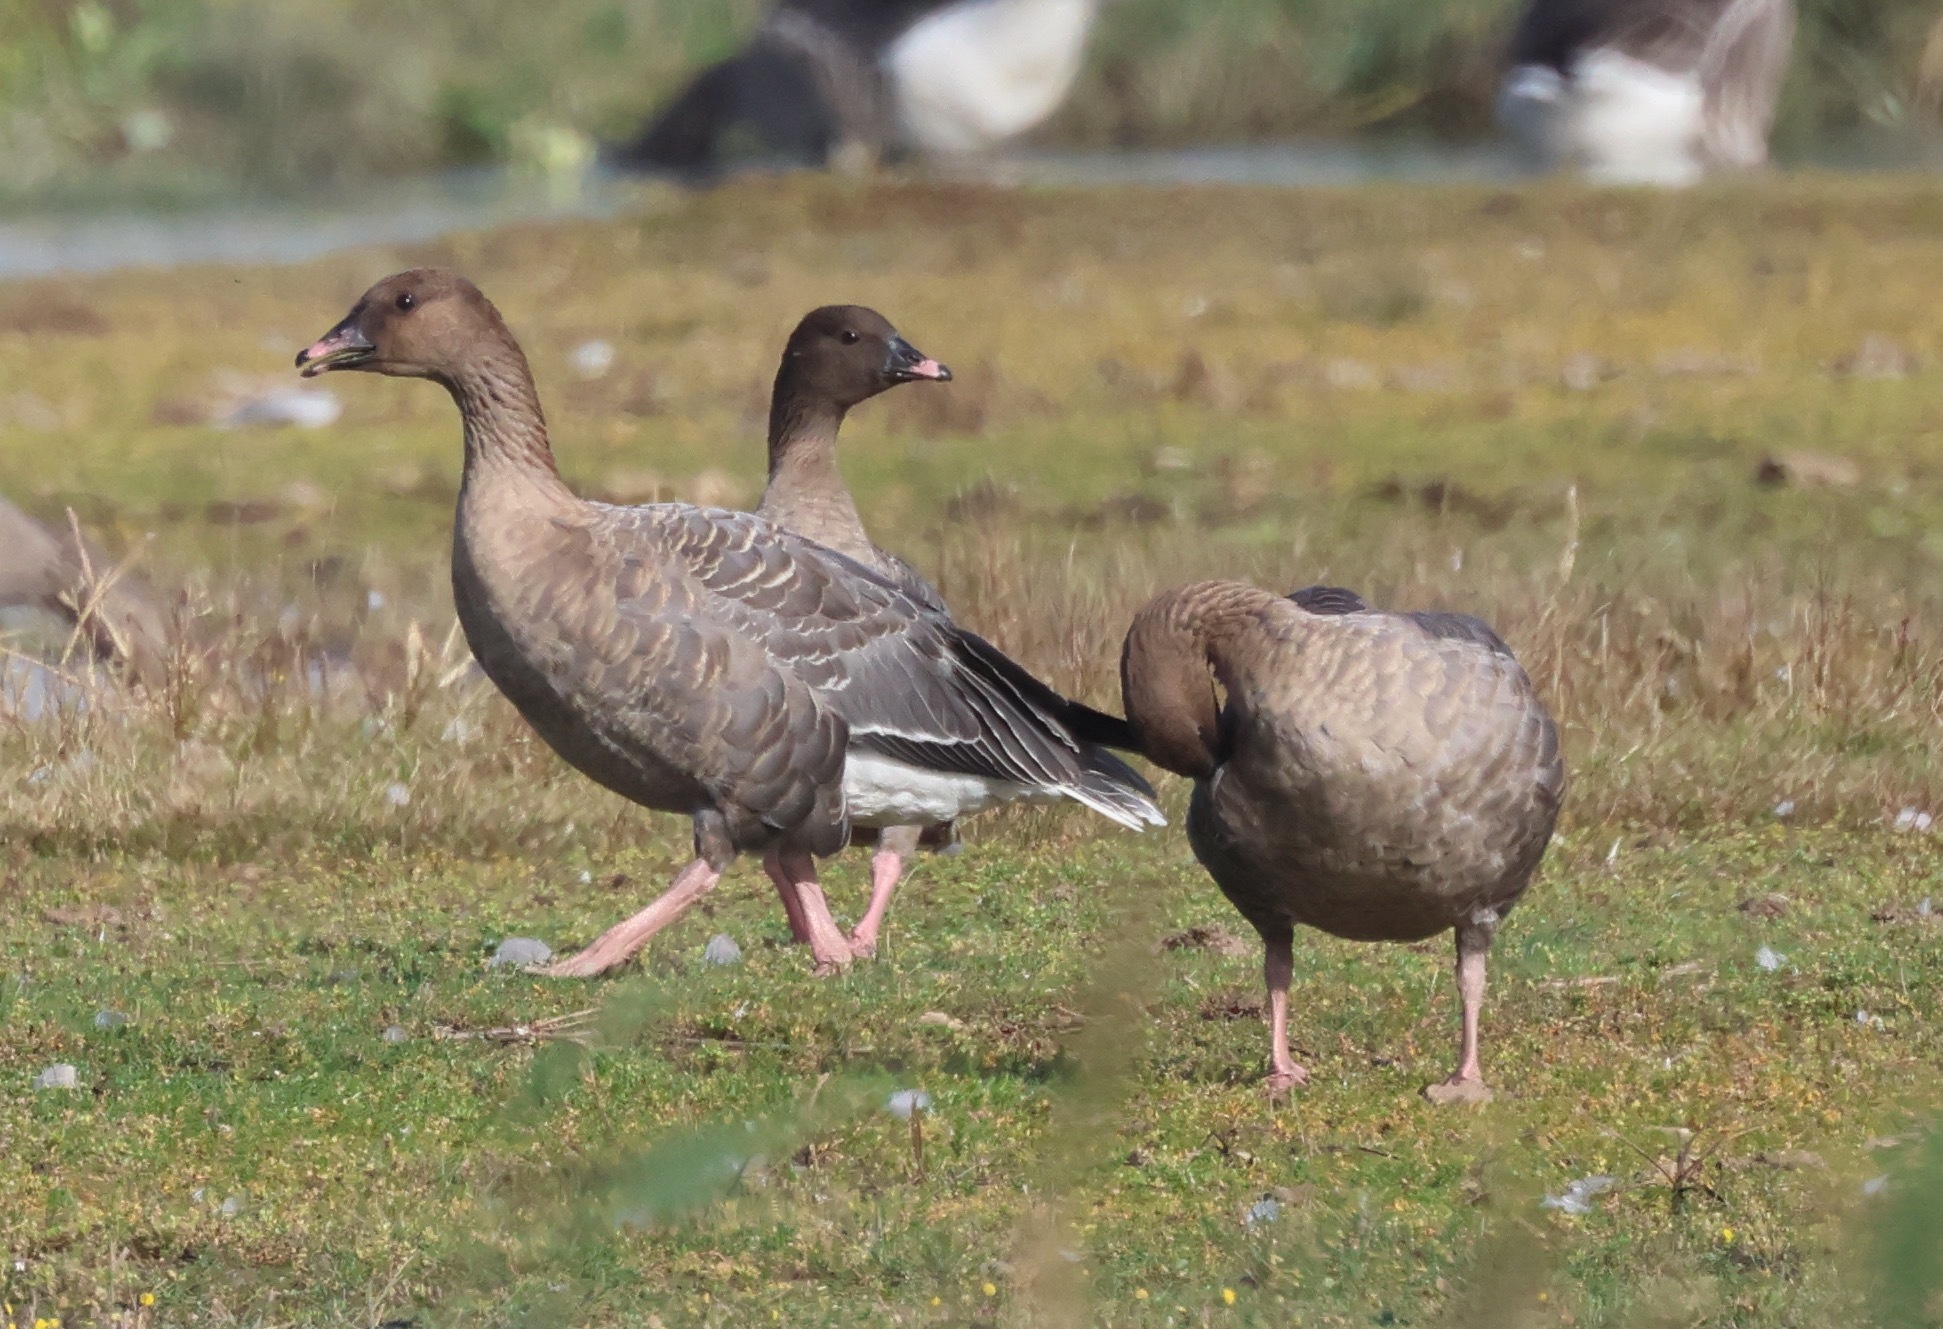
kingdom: Animalia
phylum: Chordata
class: Aves
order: Anseriformes
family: Anatidae
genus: Anser
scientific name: Anser brachyrhynchus
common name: Pink-footed goose
